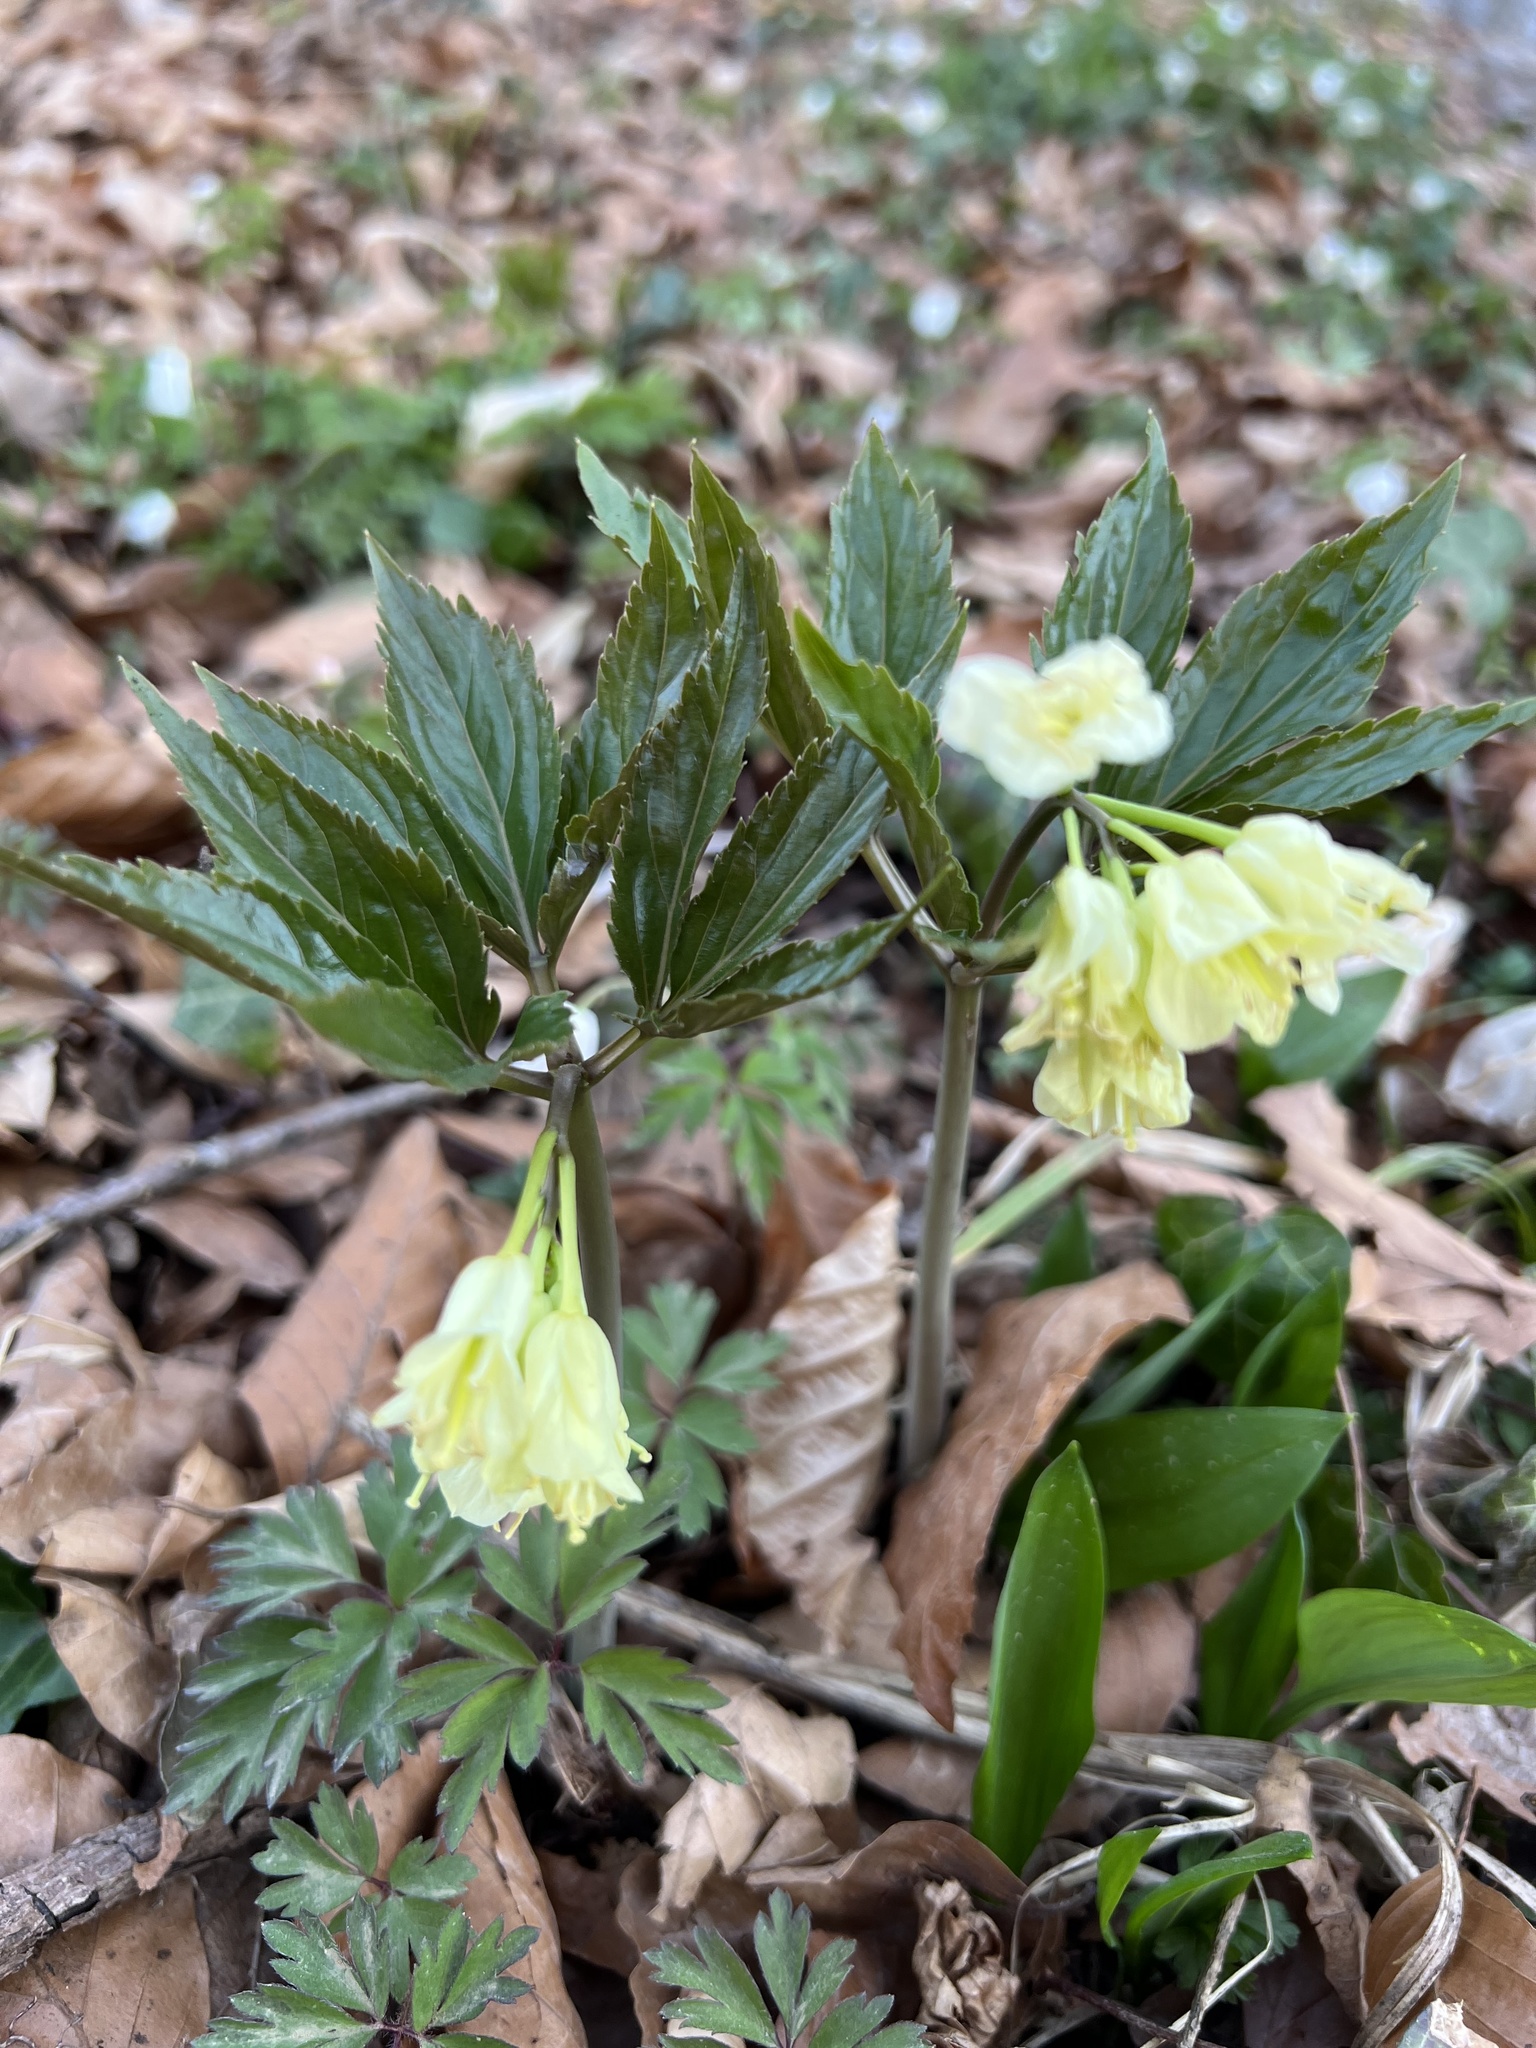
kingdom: Plantae
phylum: Tracheophyta
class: Magnoliopsida
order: Brassicales
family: Brassicaceae
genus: Cardamine
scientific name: Cardamine enneaphyllos
